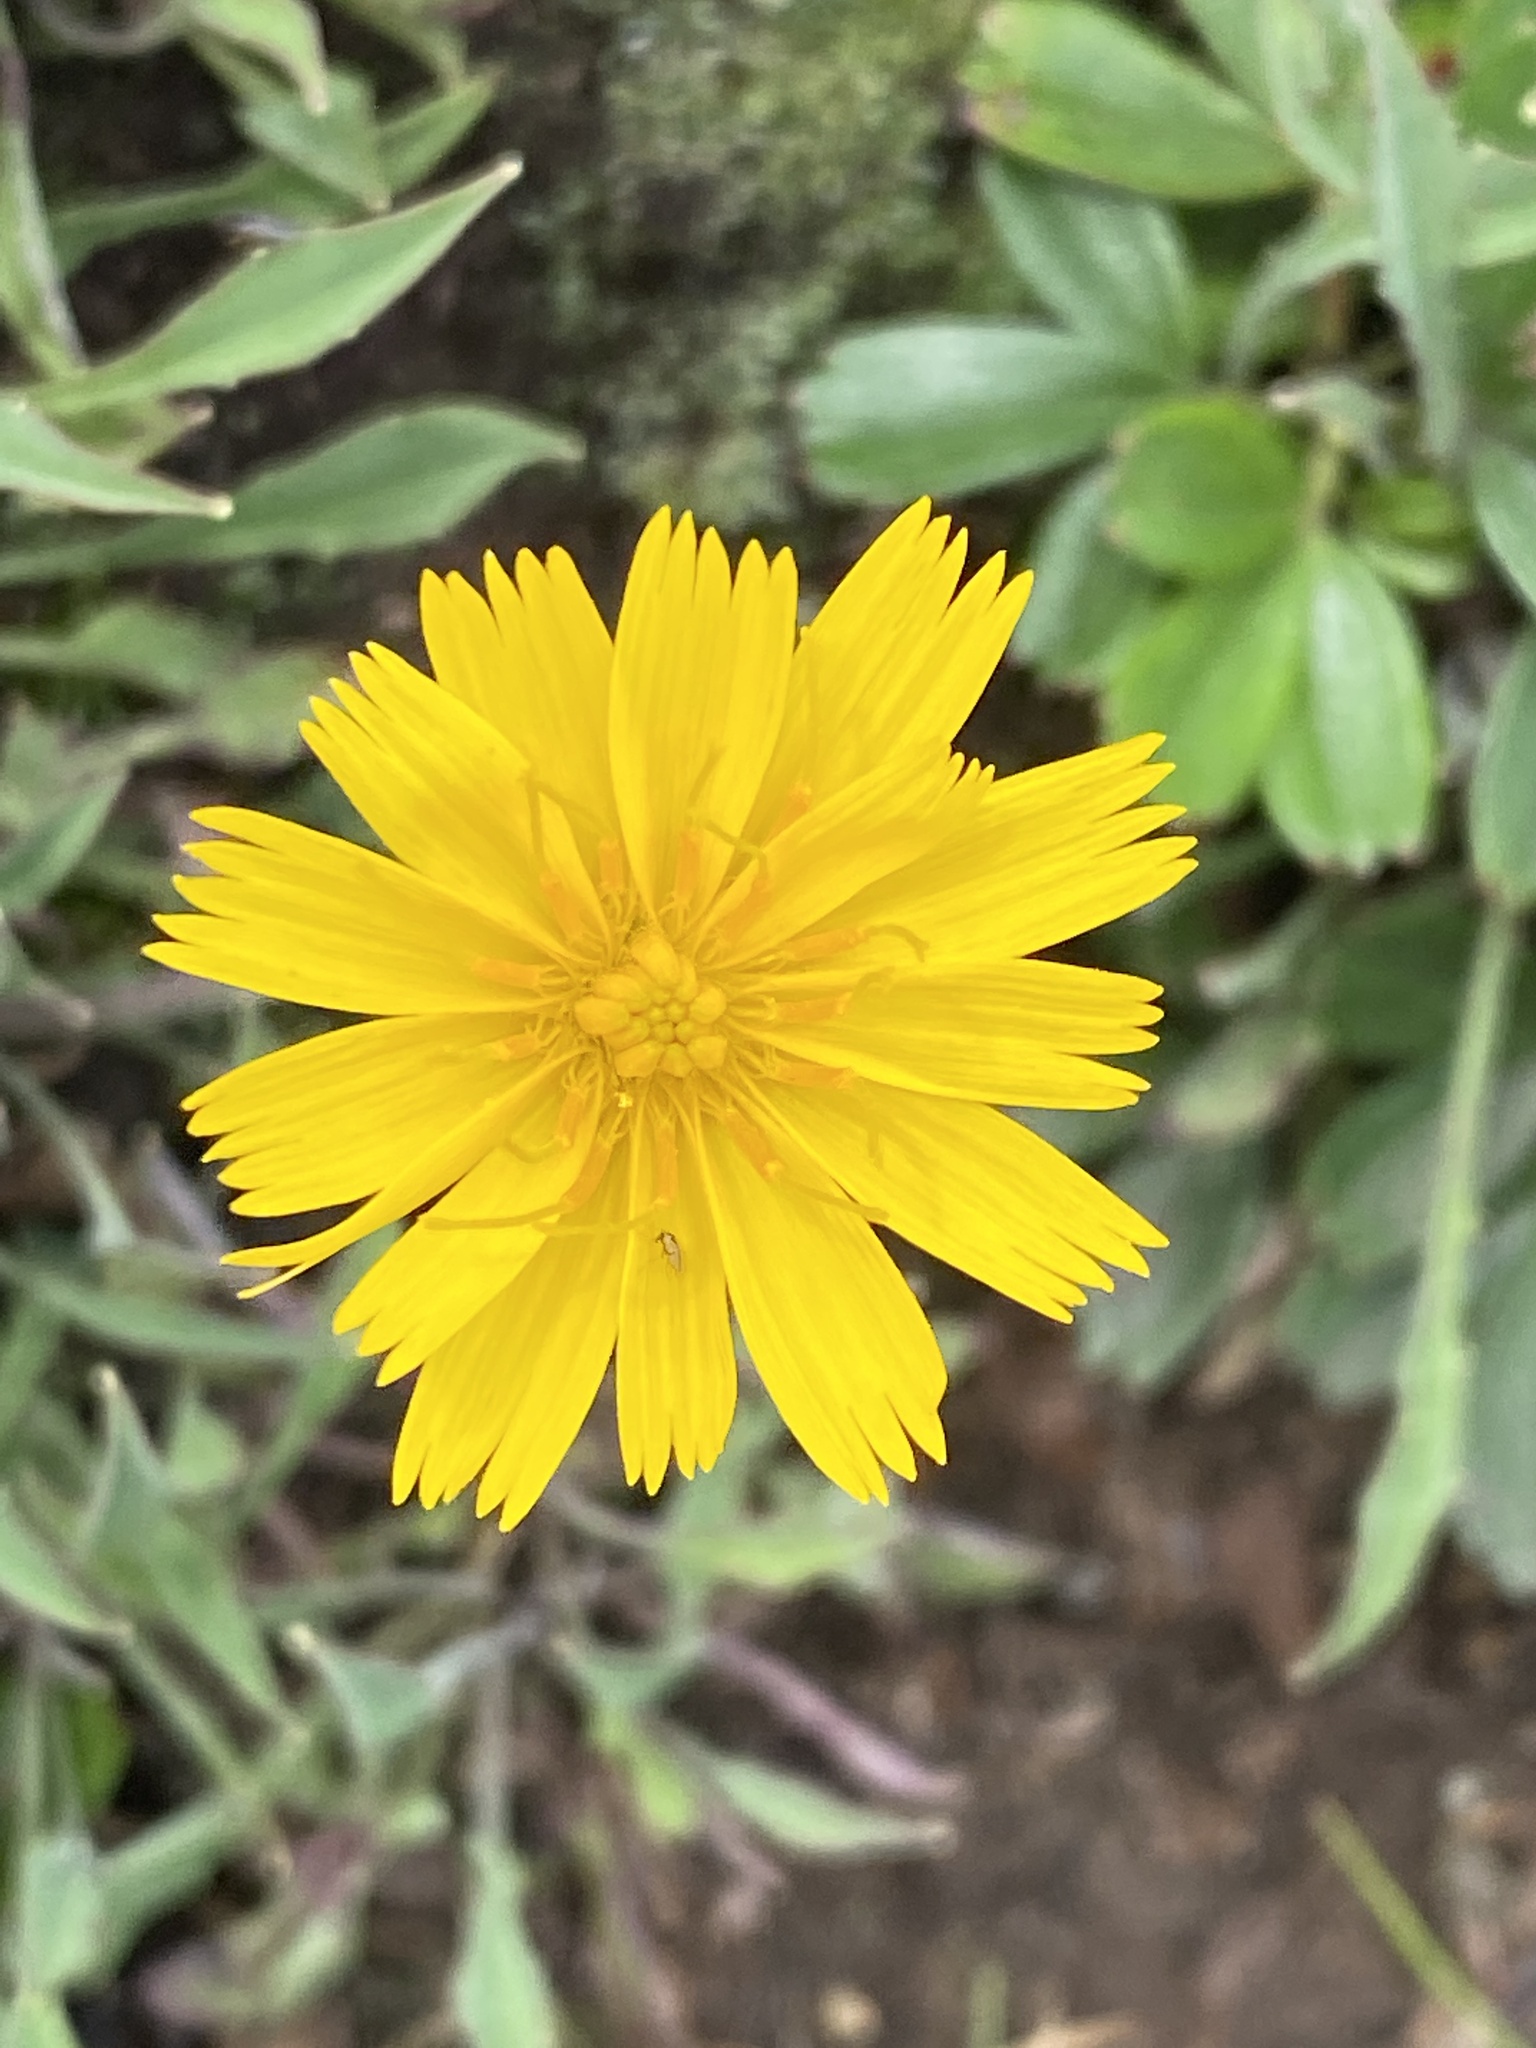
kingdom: Plantae
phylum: Tracheophyta
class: Magnoliopsida
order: Asterales
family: Asteraceae
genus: Krigia
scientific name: Krigia montana
